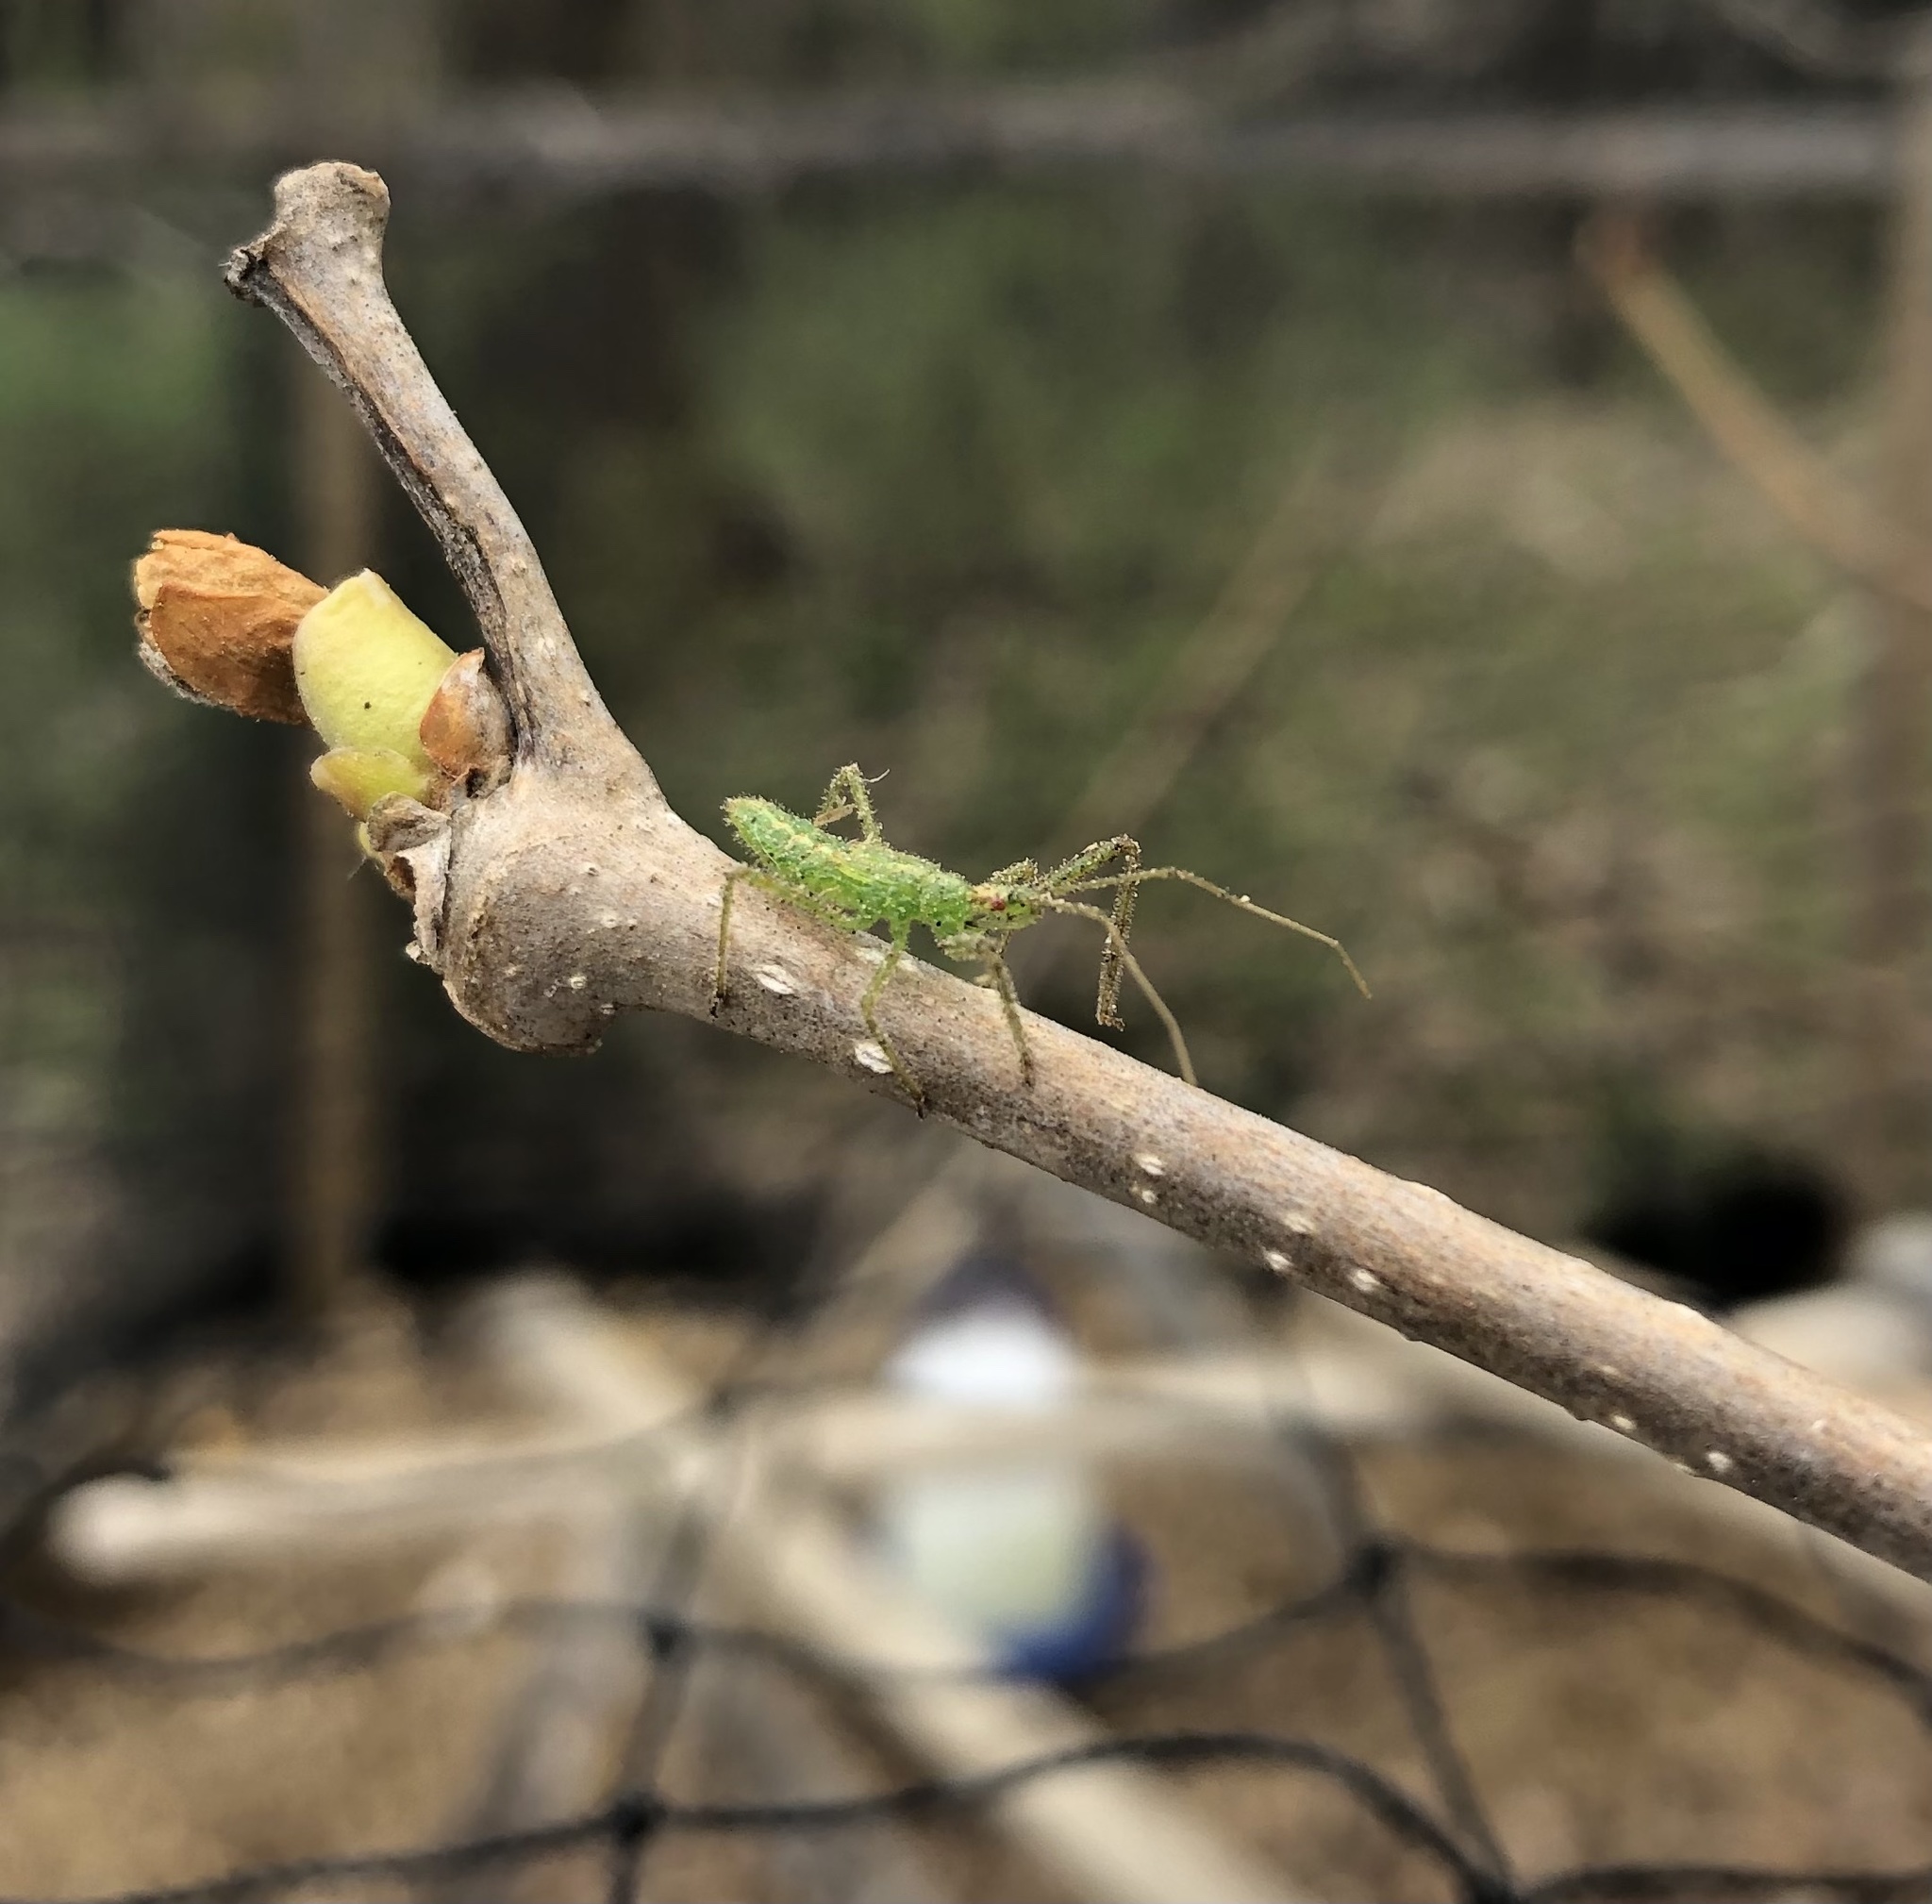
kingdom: Animalia
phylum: Arthropoda
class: Insecta
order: Hemiptera
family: Reduviidae
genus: Zelus
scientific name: Zelus luridus
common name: Pale green assassin bug
